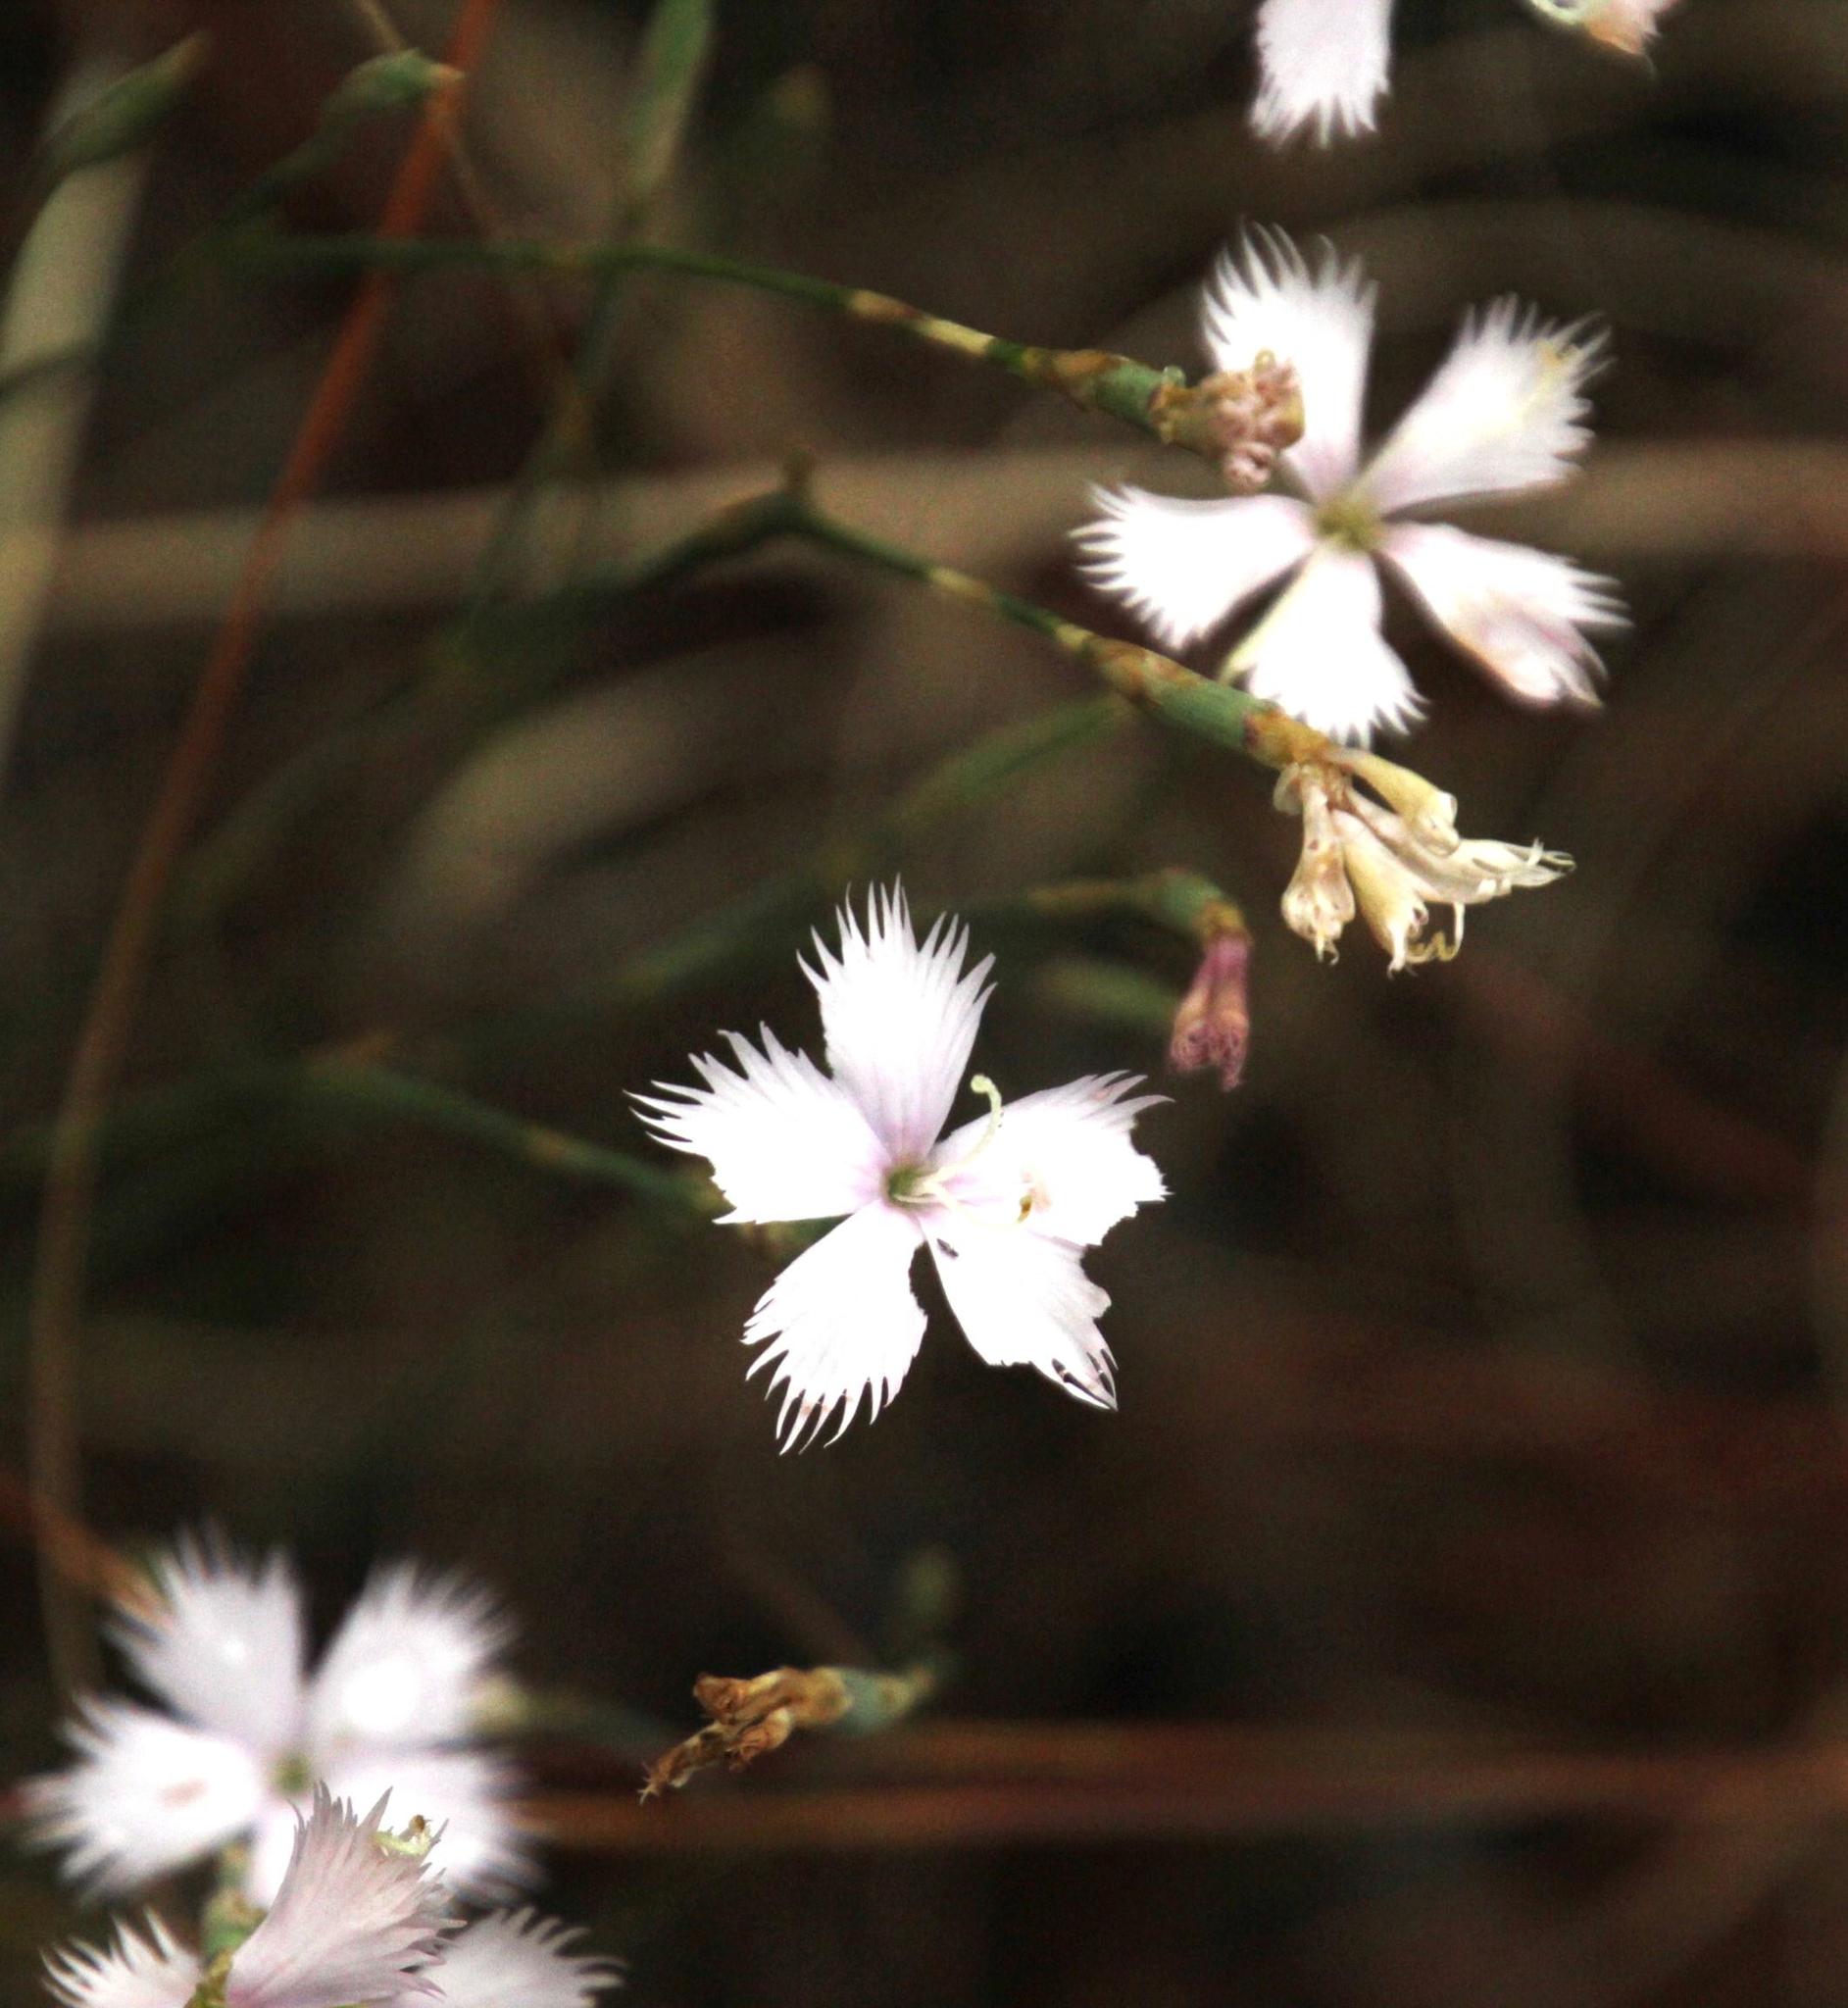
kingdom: Plantae
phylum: Tracheophyta
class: Magnoliopsida
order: Caryophyllales
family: Caryophyllaceae
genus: Dianthus
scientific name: Dianthus thunbergii
